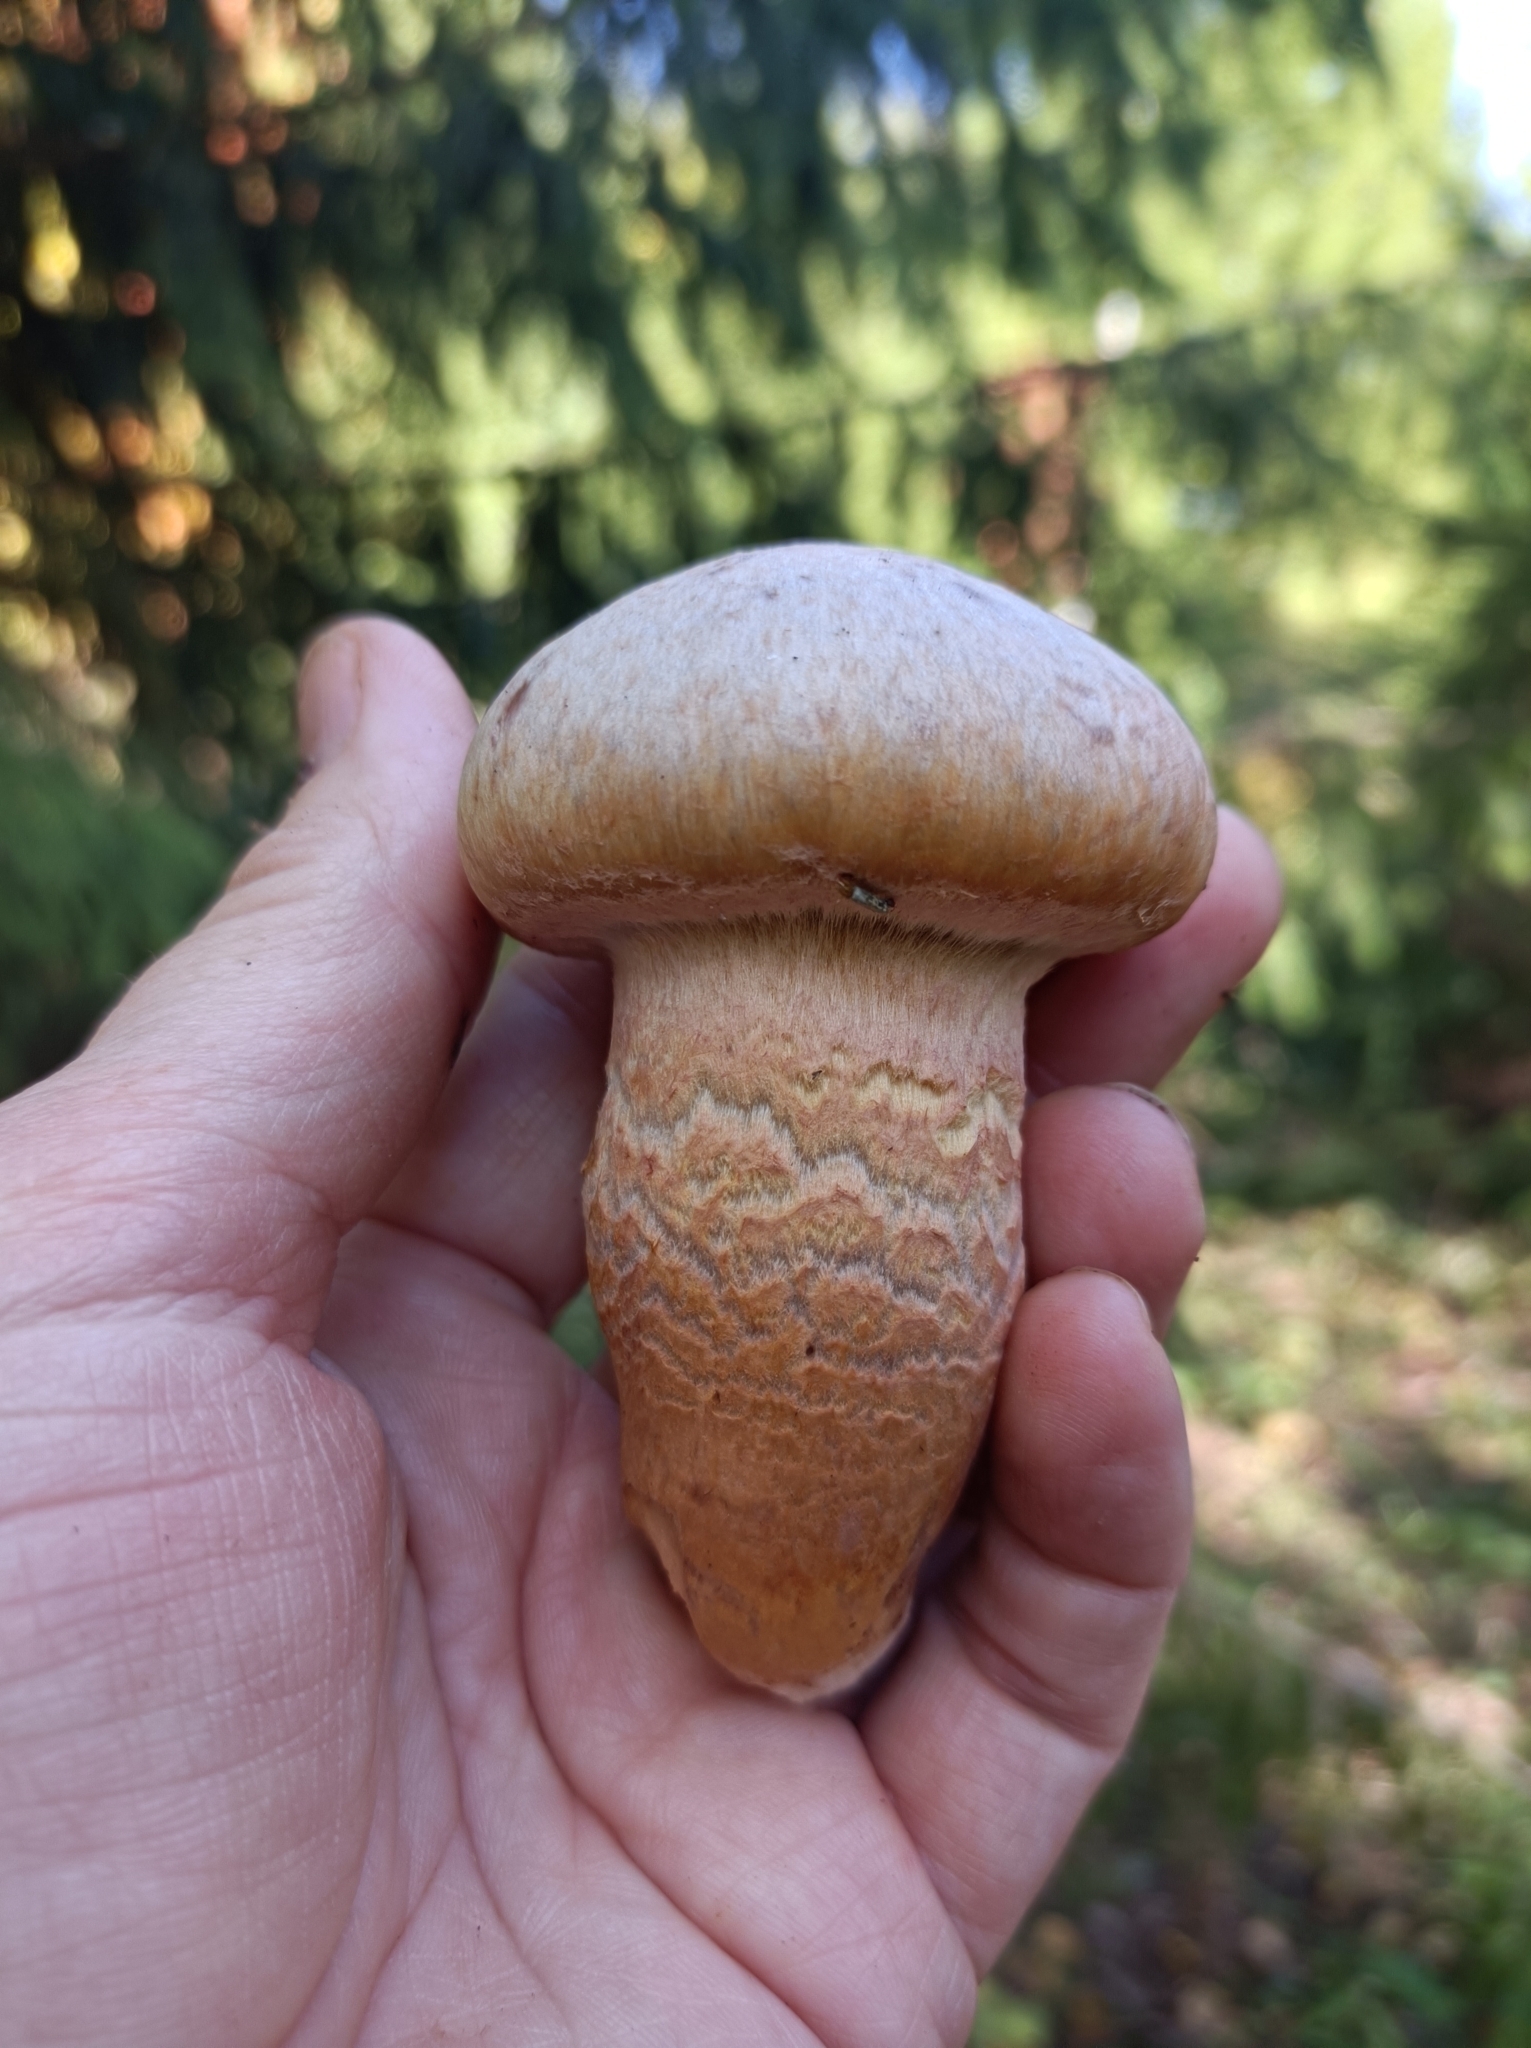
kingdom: Fungi
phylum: Basidiomycota
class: Agaricomycetes
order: Boletales
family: Gomphidiaceae
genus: Chroogomphus
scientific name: Chroogomphus rutilus
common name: Copper spike
